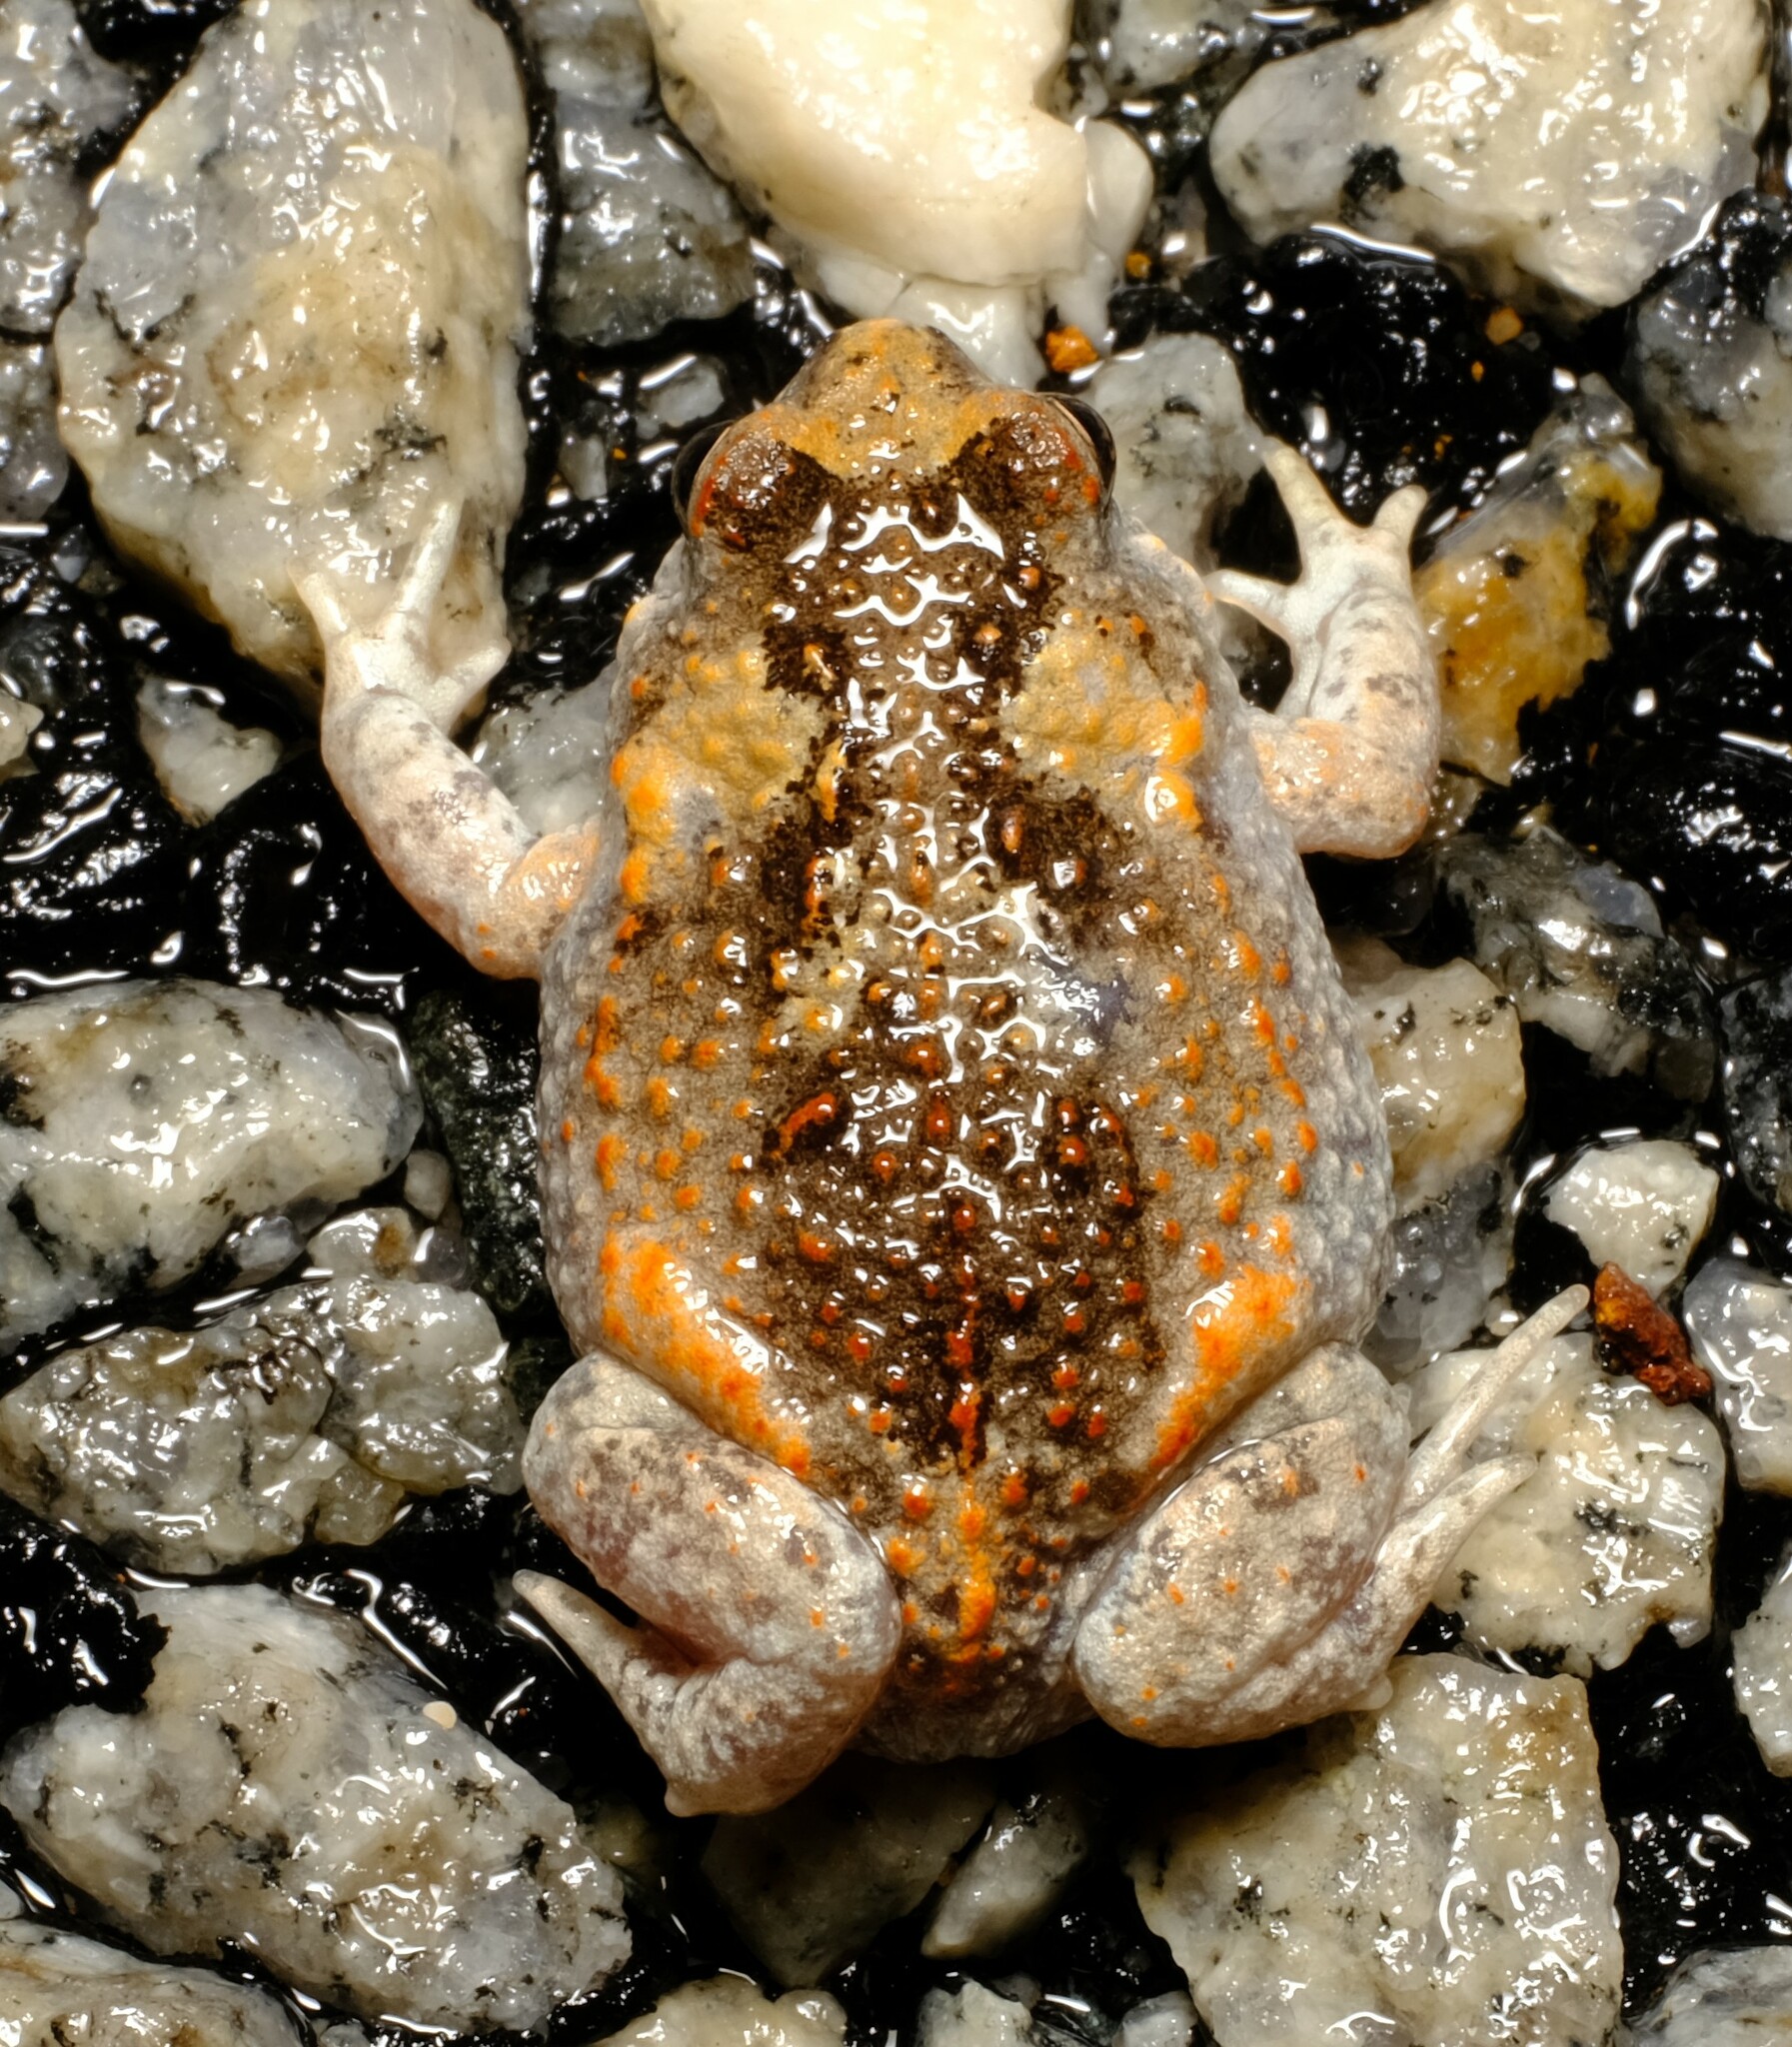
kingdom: Animalia
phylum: Chordata
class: Amphibia
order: Anura
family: Myobatrachidae
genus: Pseudophryne
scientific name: Pseudophryne guentheri
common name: Günther’s toadlet
